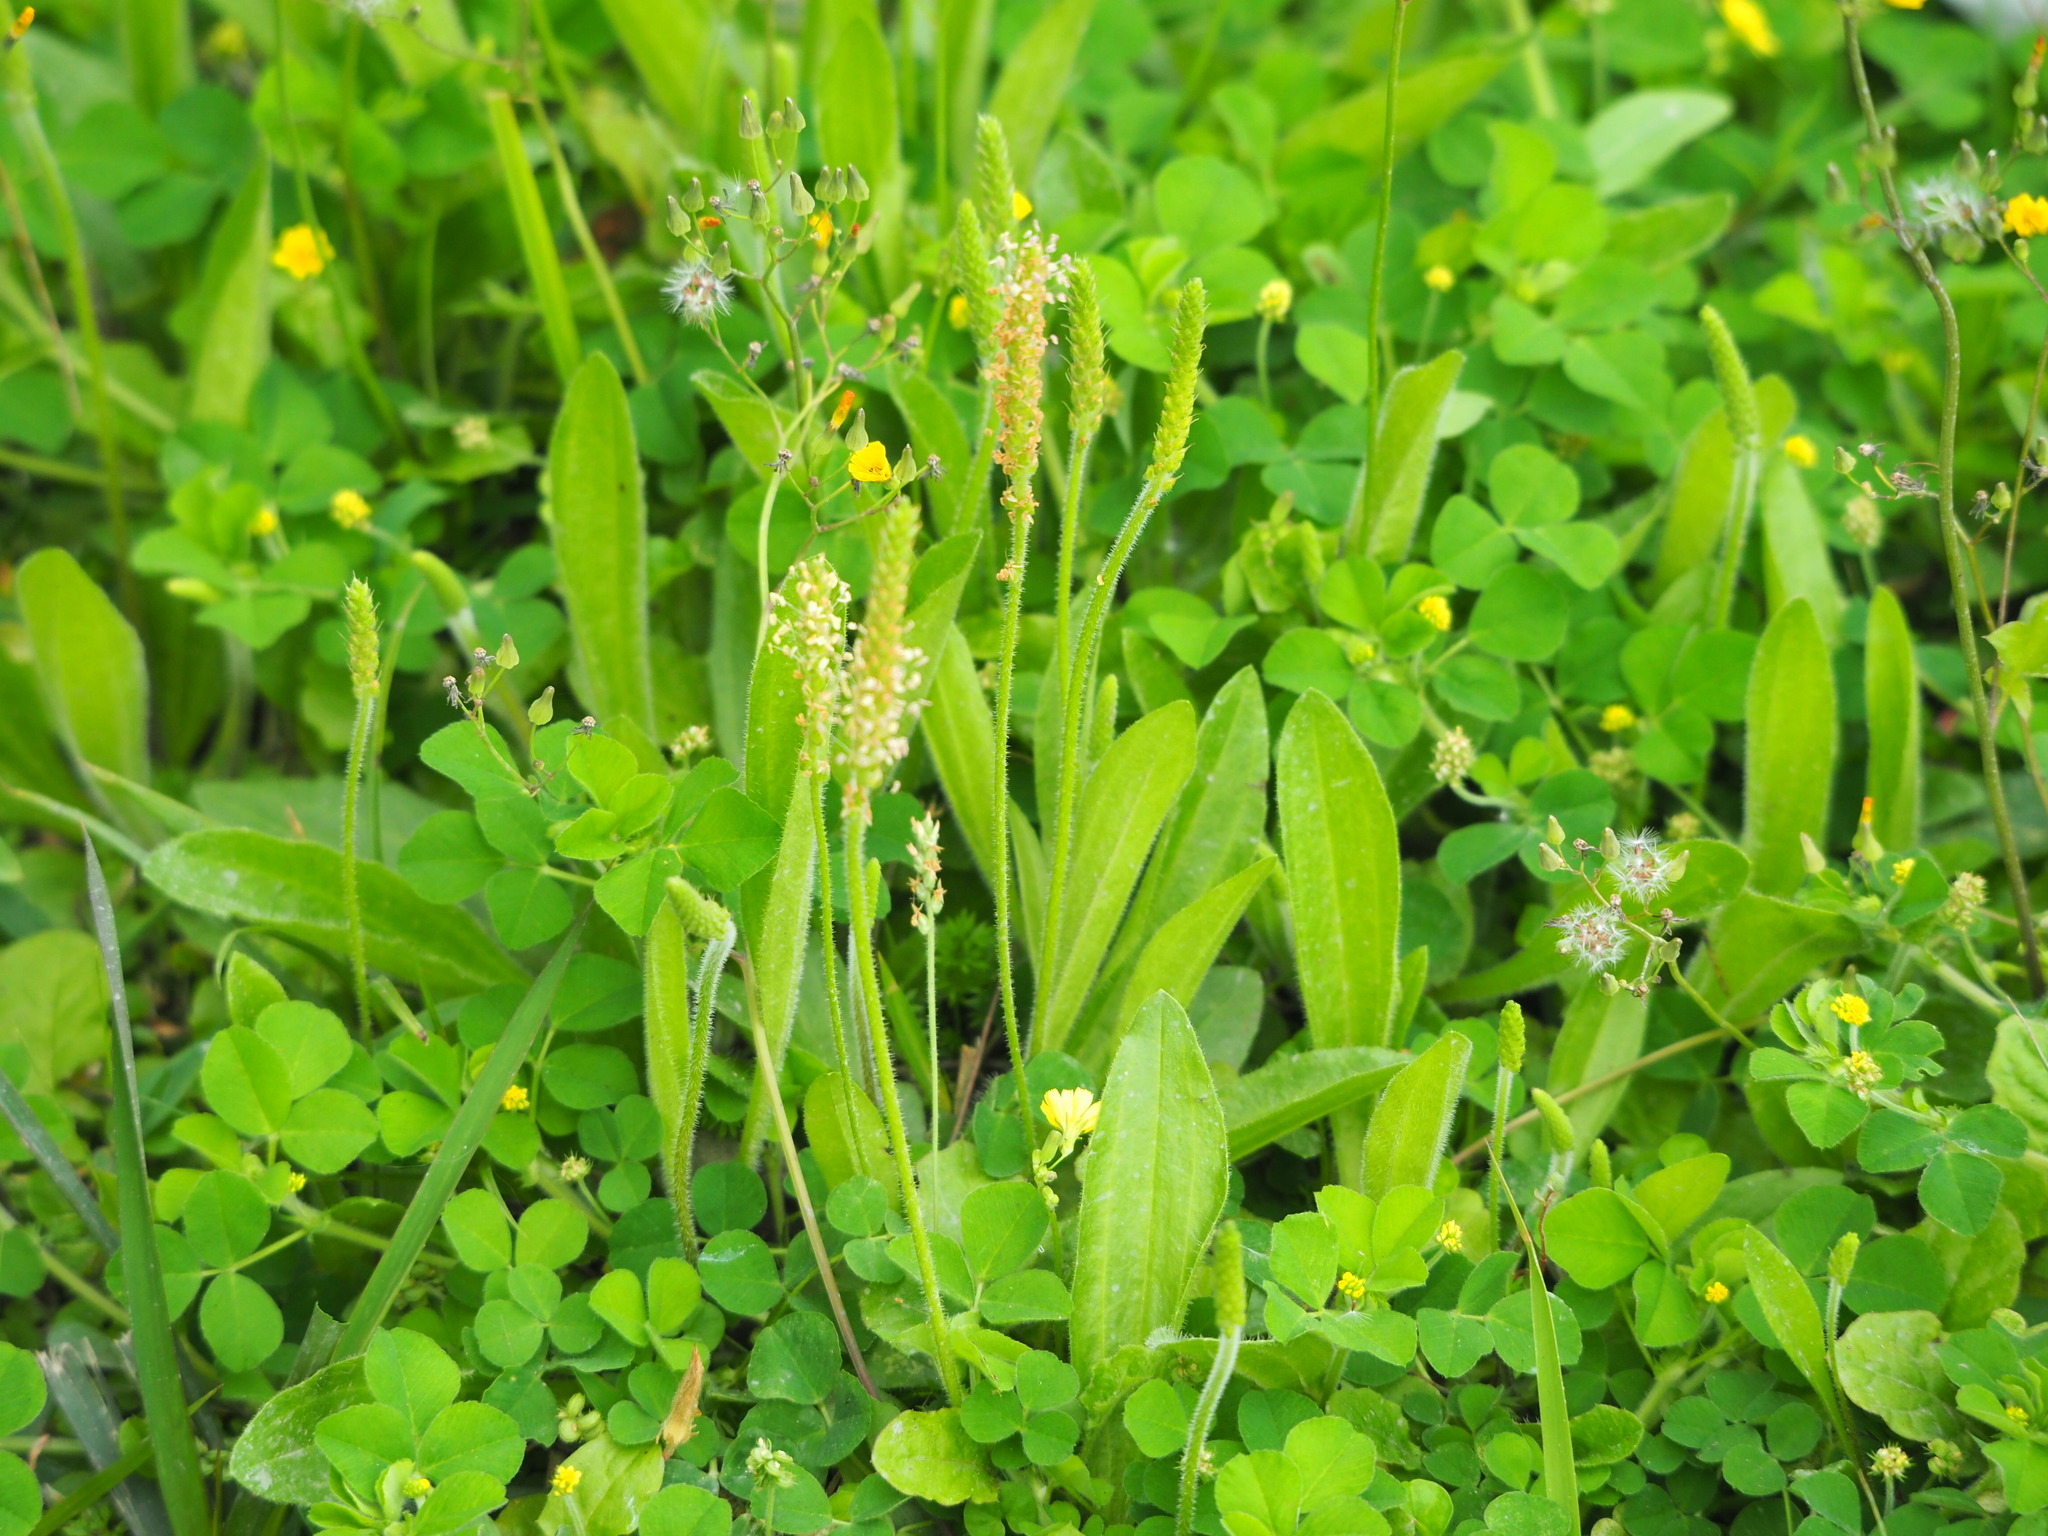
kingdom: Plantae
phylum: Tracheophyta
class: Magnoliopsida
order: Lamiales
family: Plantaginaceae
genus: Plantago
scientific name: Plantago virginica
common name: Hoary plantain
